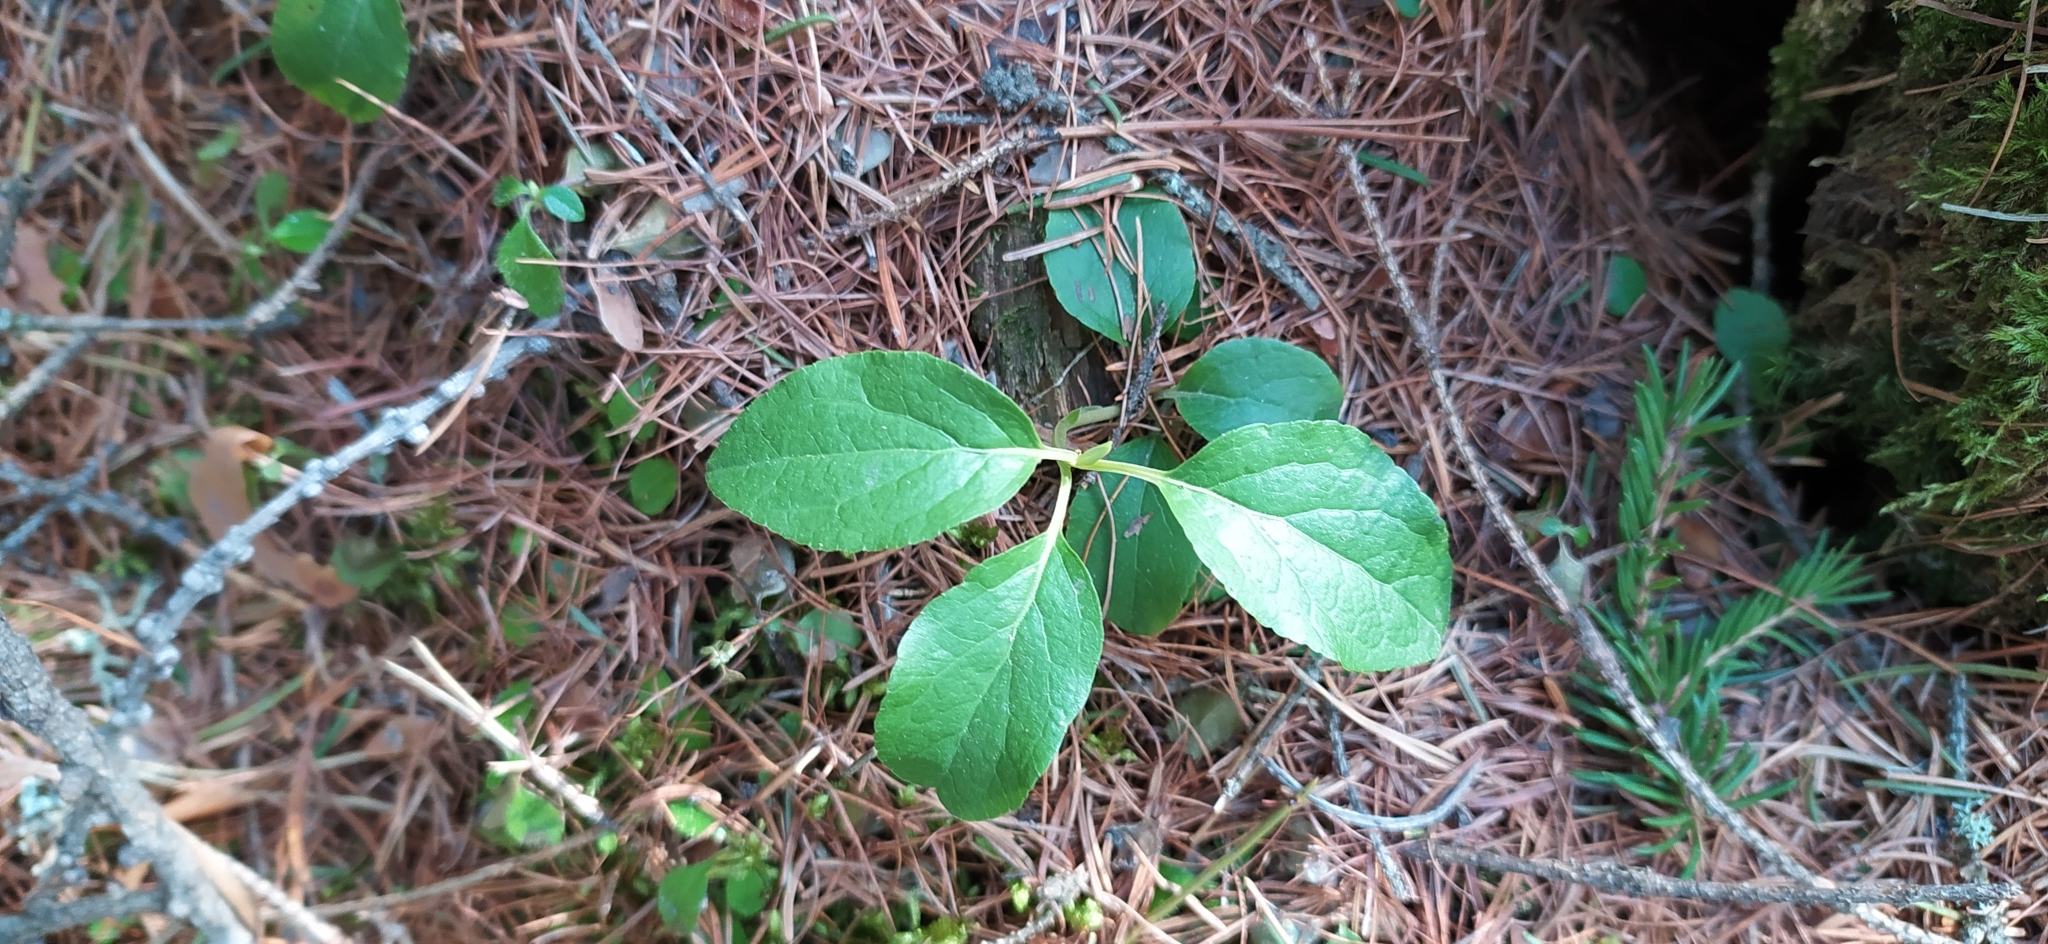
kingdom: Plantae
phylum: Tracheophyta
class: Magnoliopsida
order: Ericales
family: Ericaceae
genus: Orthilia
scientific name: Orthilia secunda
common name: One-sided orthilia
